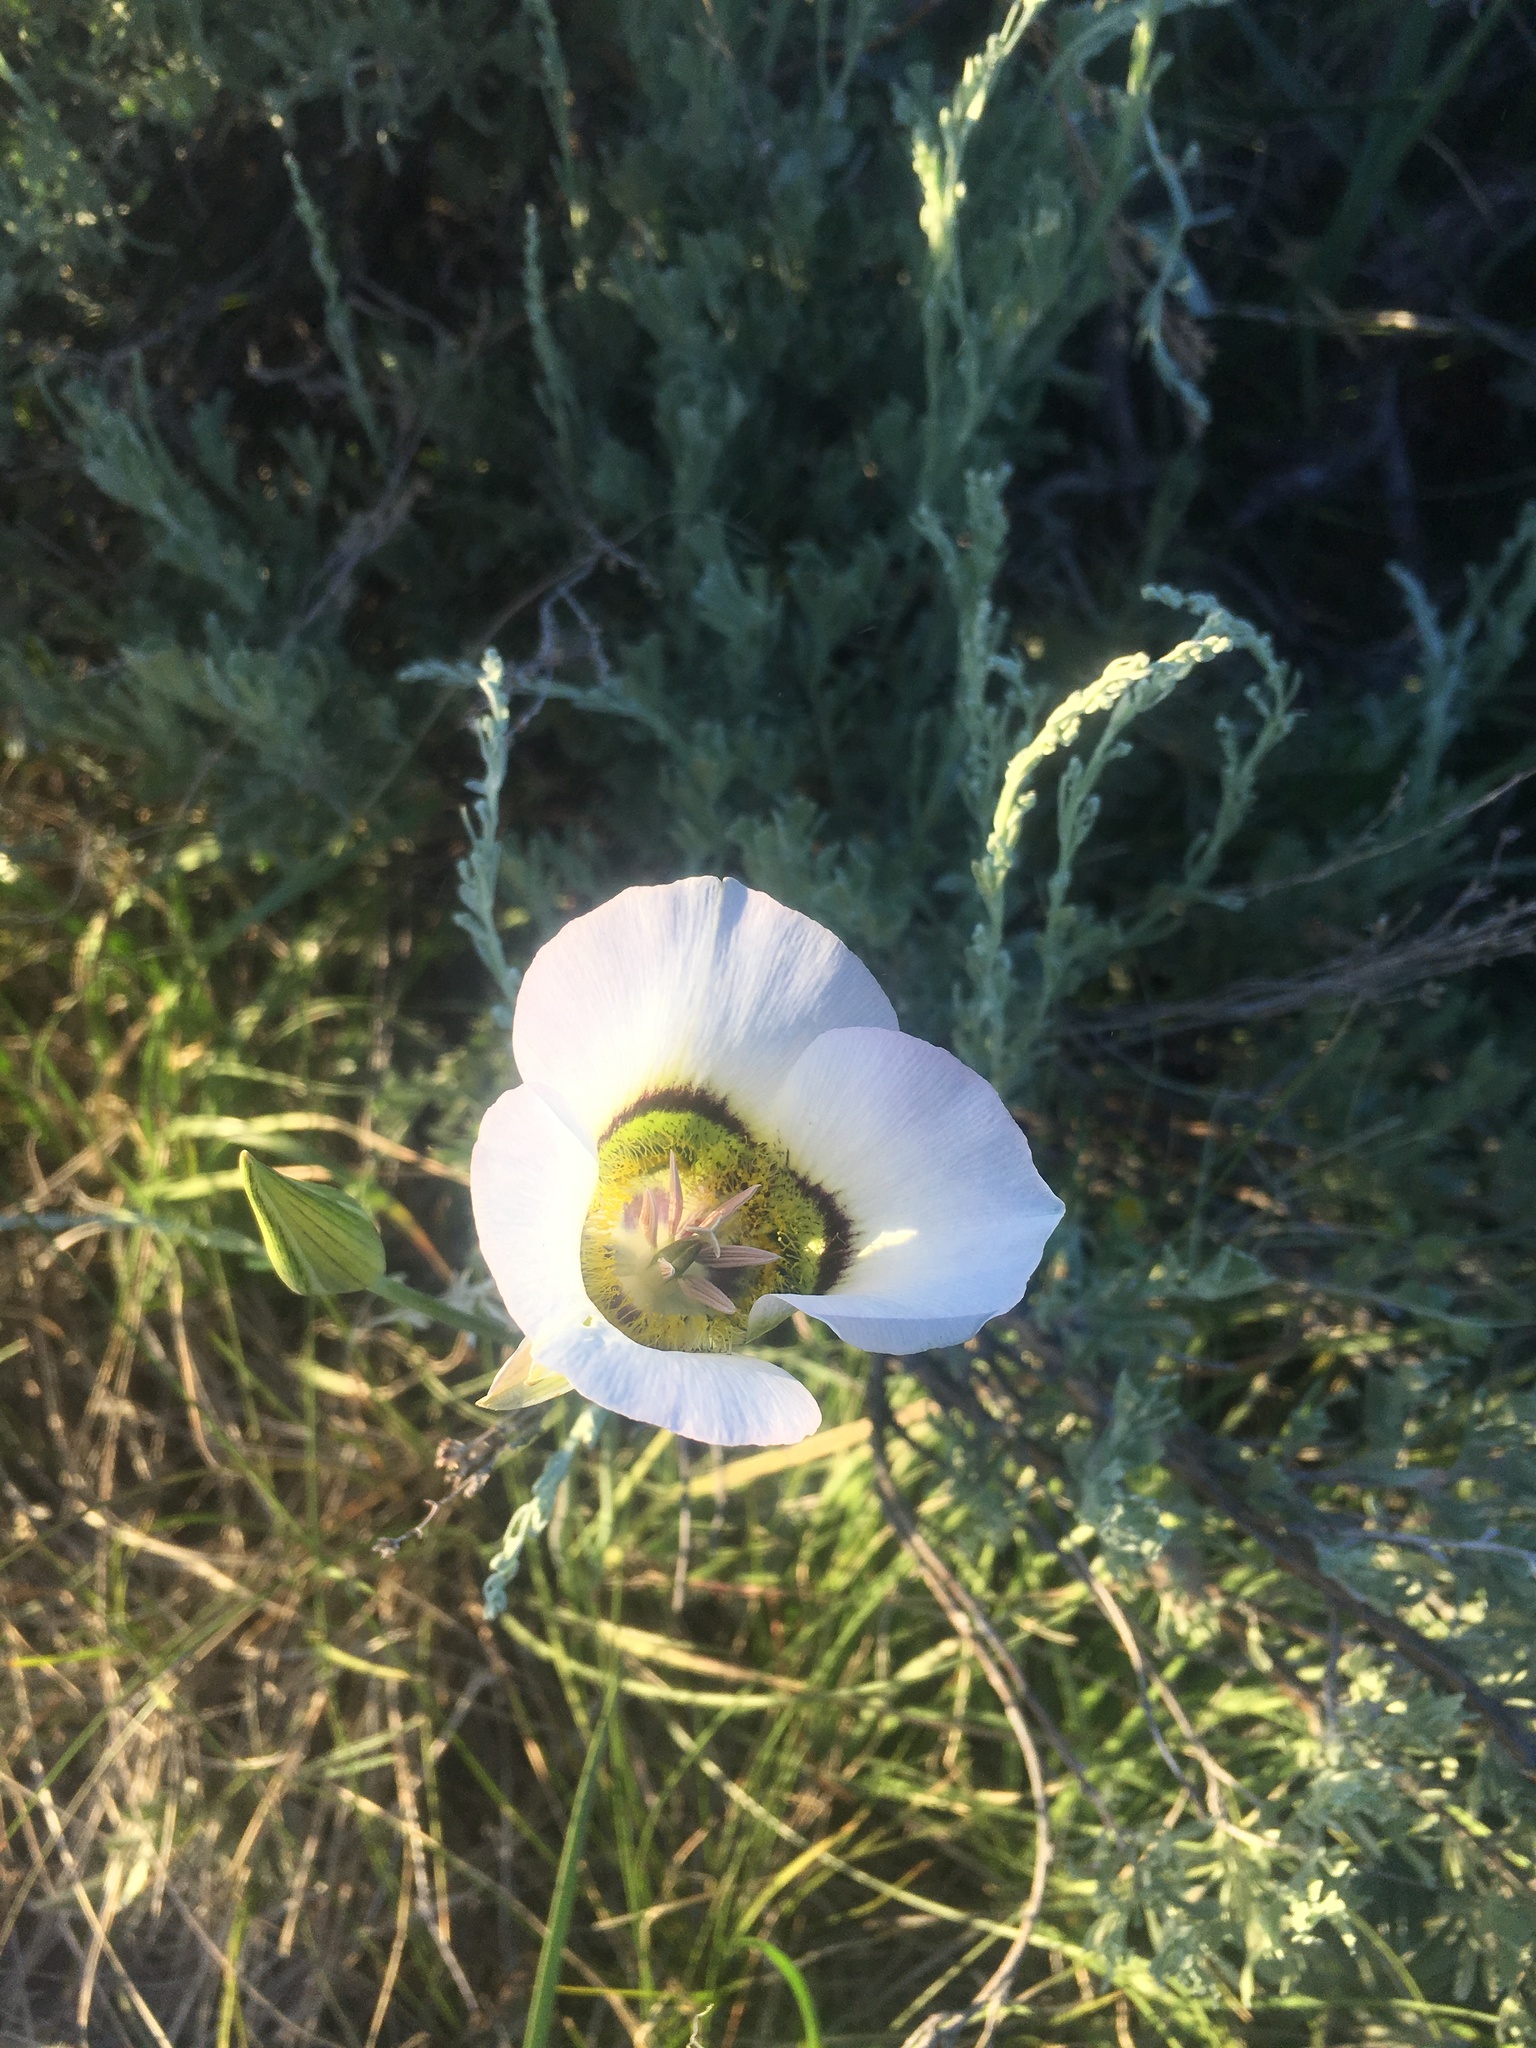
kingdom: Plantae
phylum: Tracheophyta
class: Liliopsida
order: Liliales
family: Liliaceae
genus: Calochortus
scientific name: Calochortus gunnisonii
